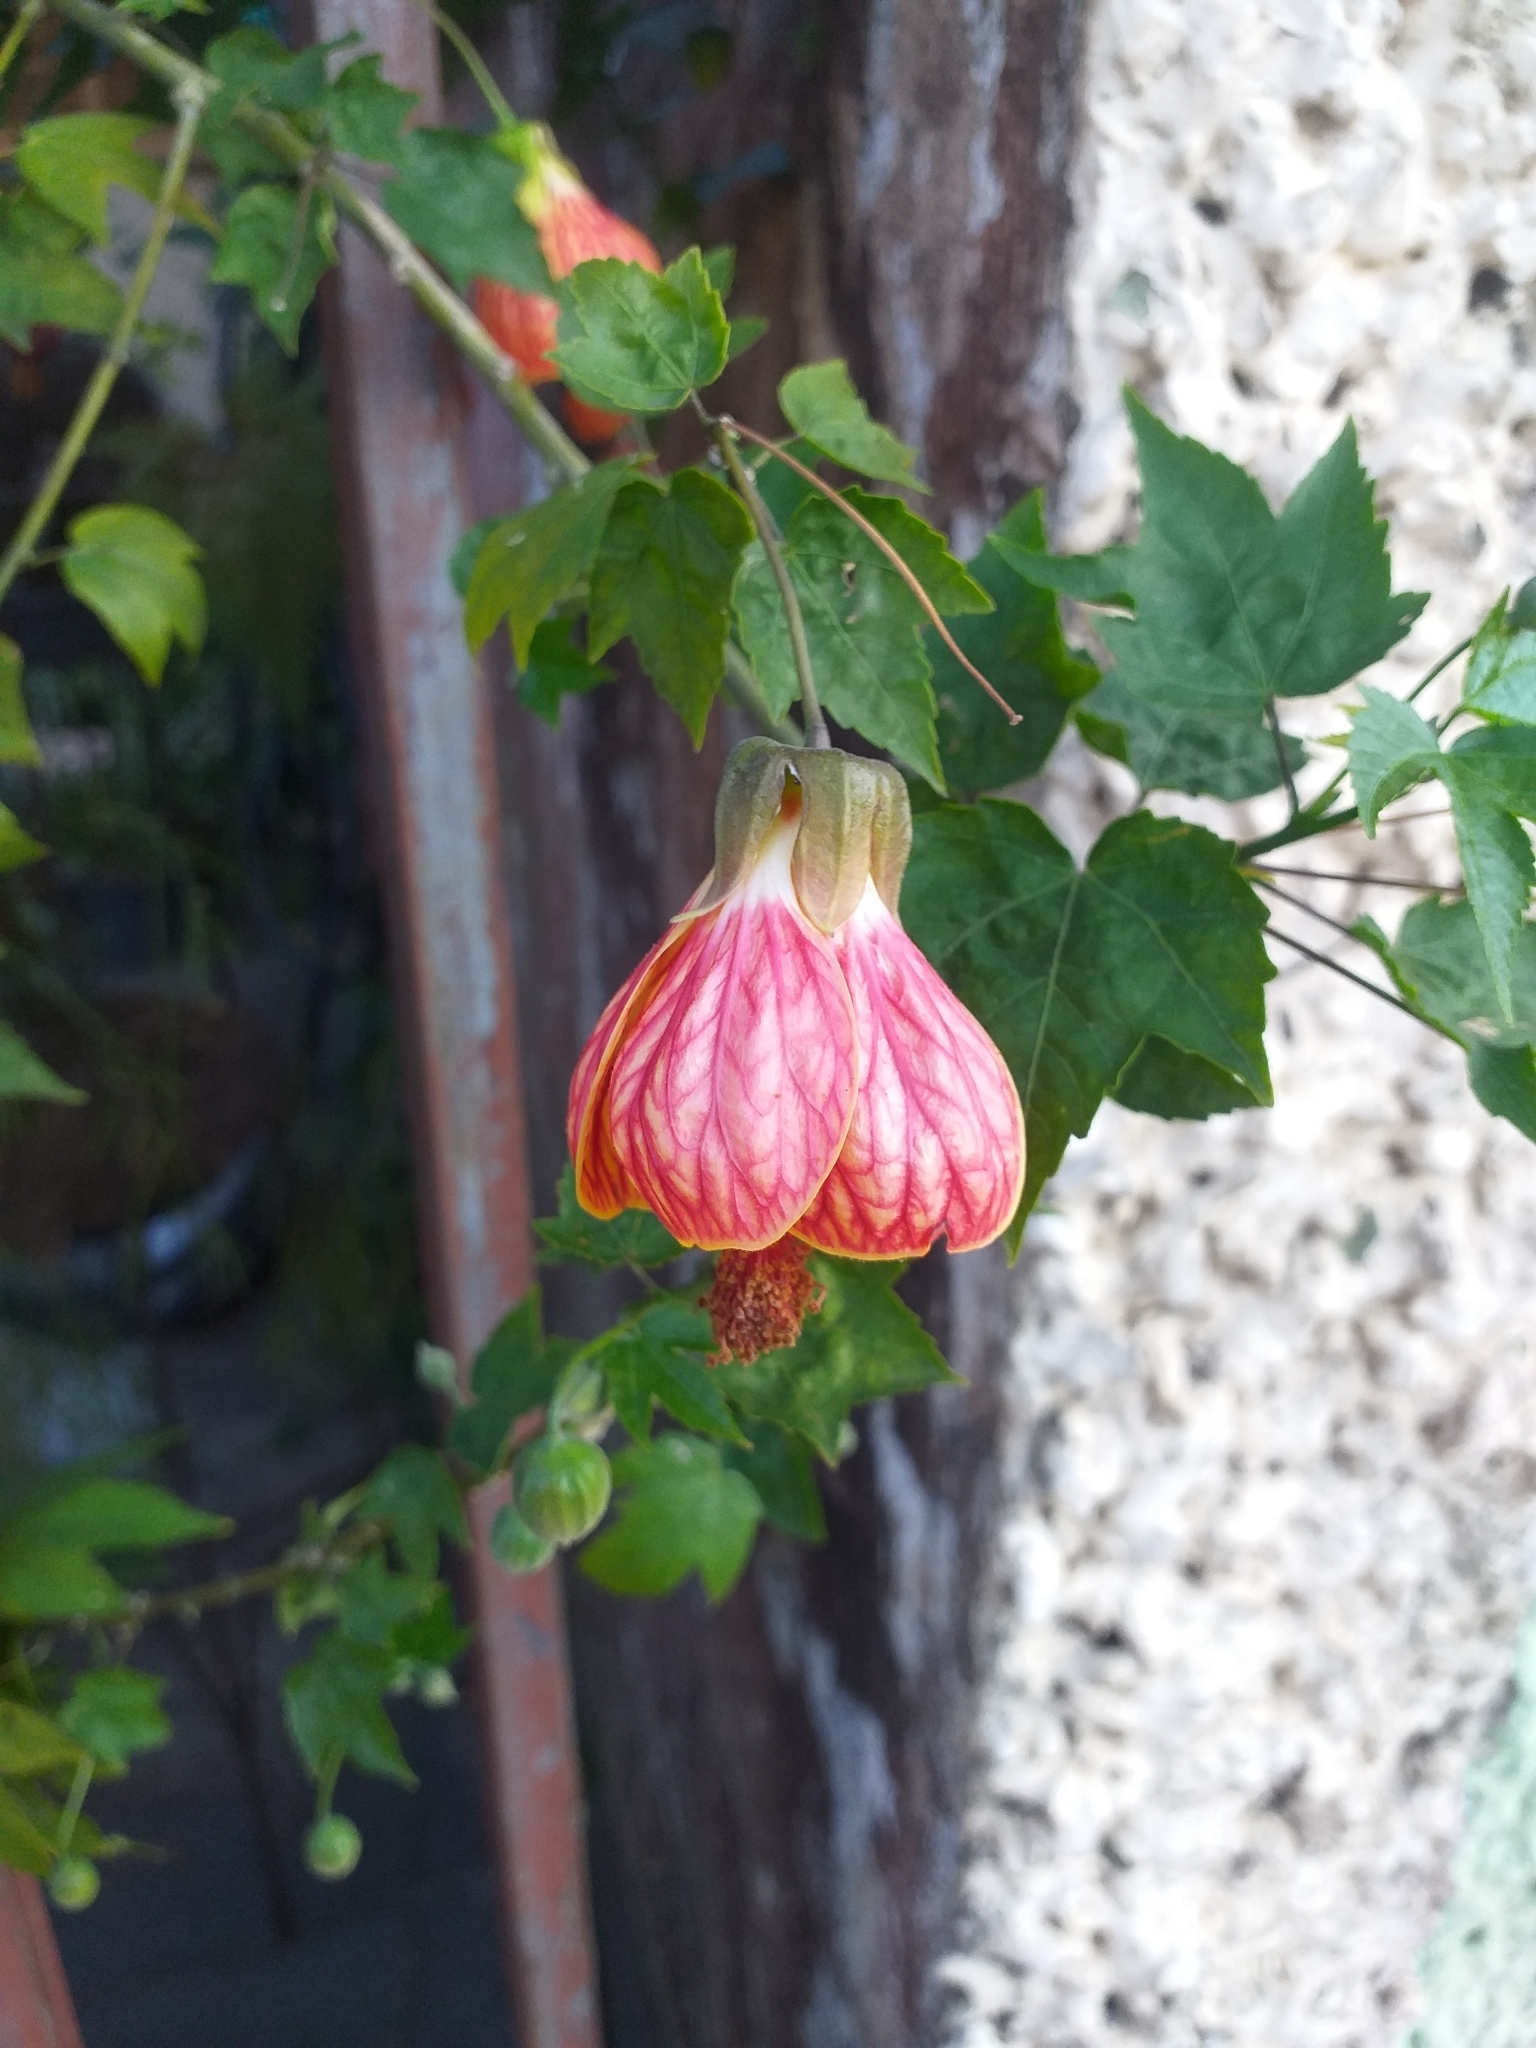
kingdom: Plantae
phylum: Tracheophyta
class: Magnoliopsida
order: Malvales
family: Malvaceae
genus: Callianthe
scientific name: Callianthe picta
